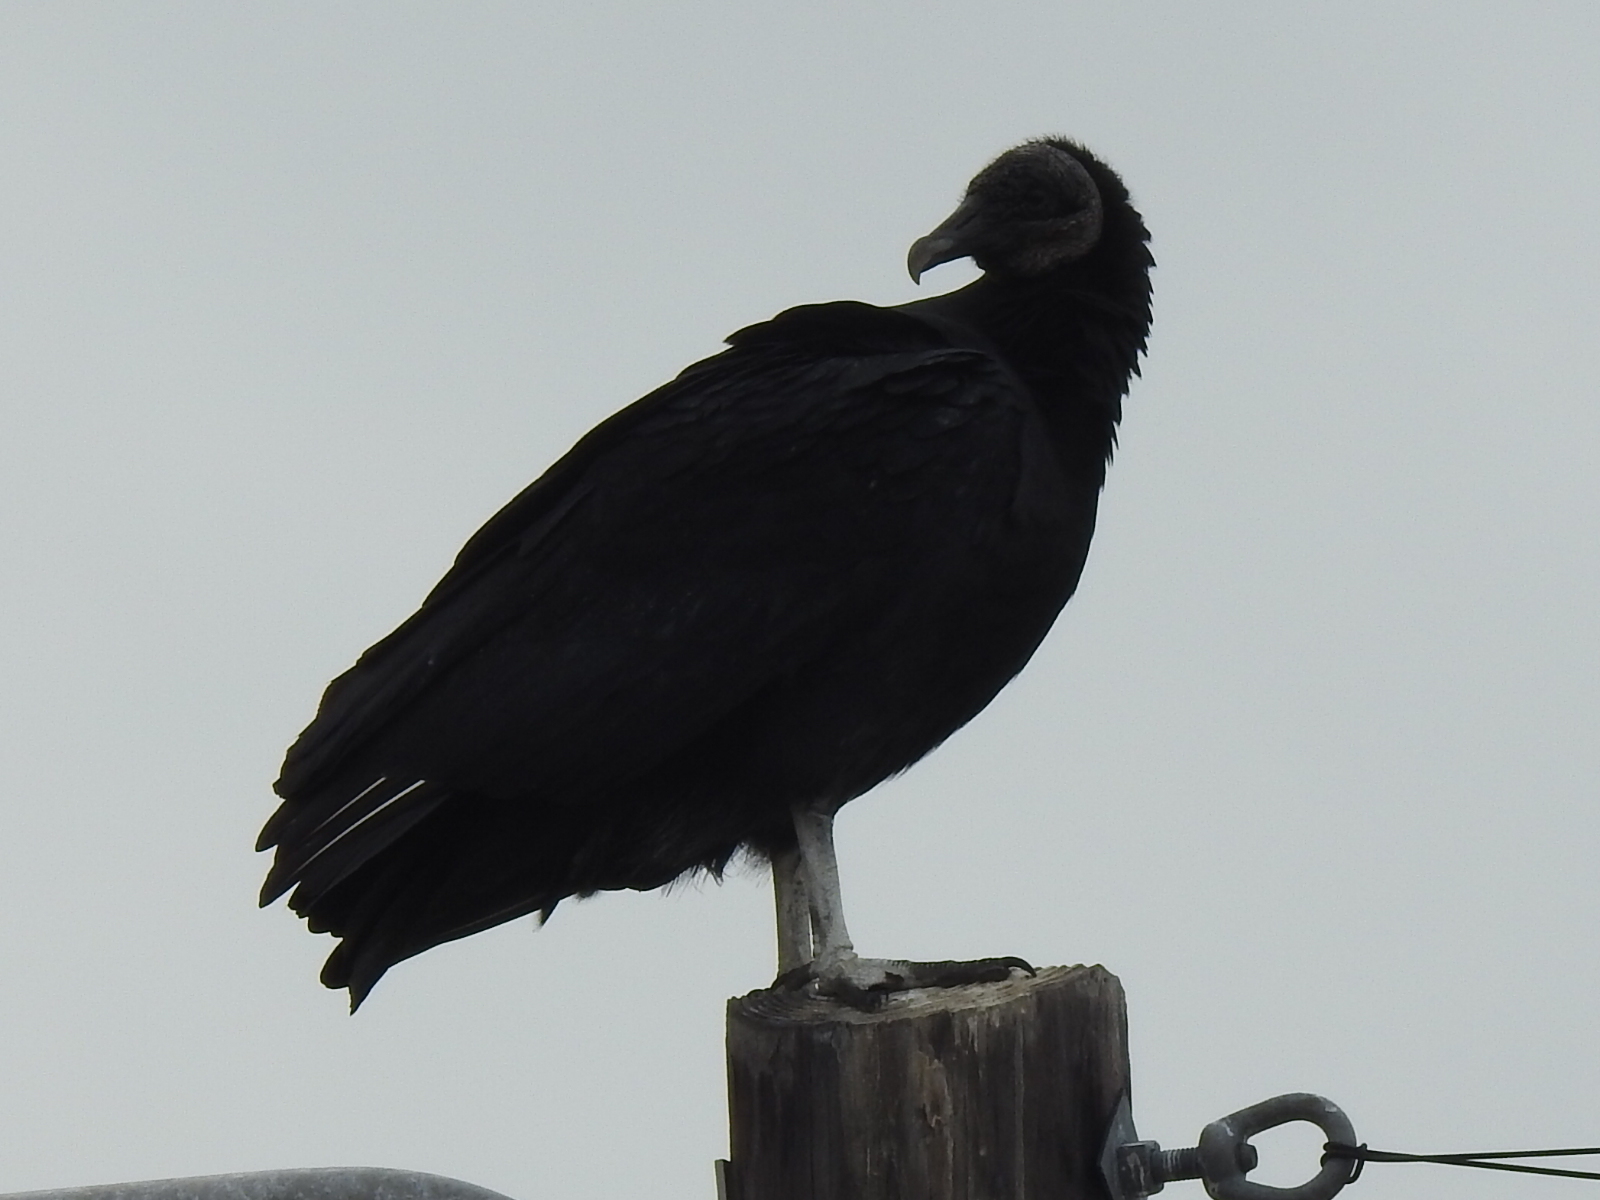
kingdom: Animalia
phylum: Chordata
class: Aves
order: Accipitriformes
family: Cathartidae
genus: Coragyps
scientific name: Coragyps atratus
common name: Black vulture
